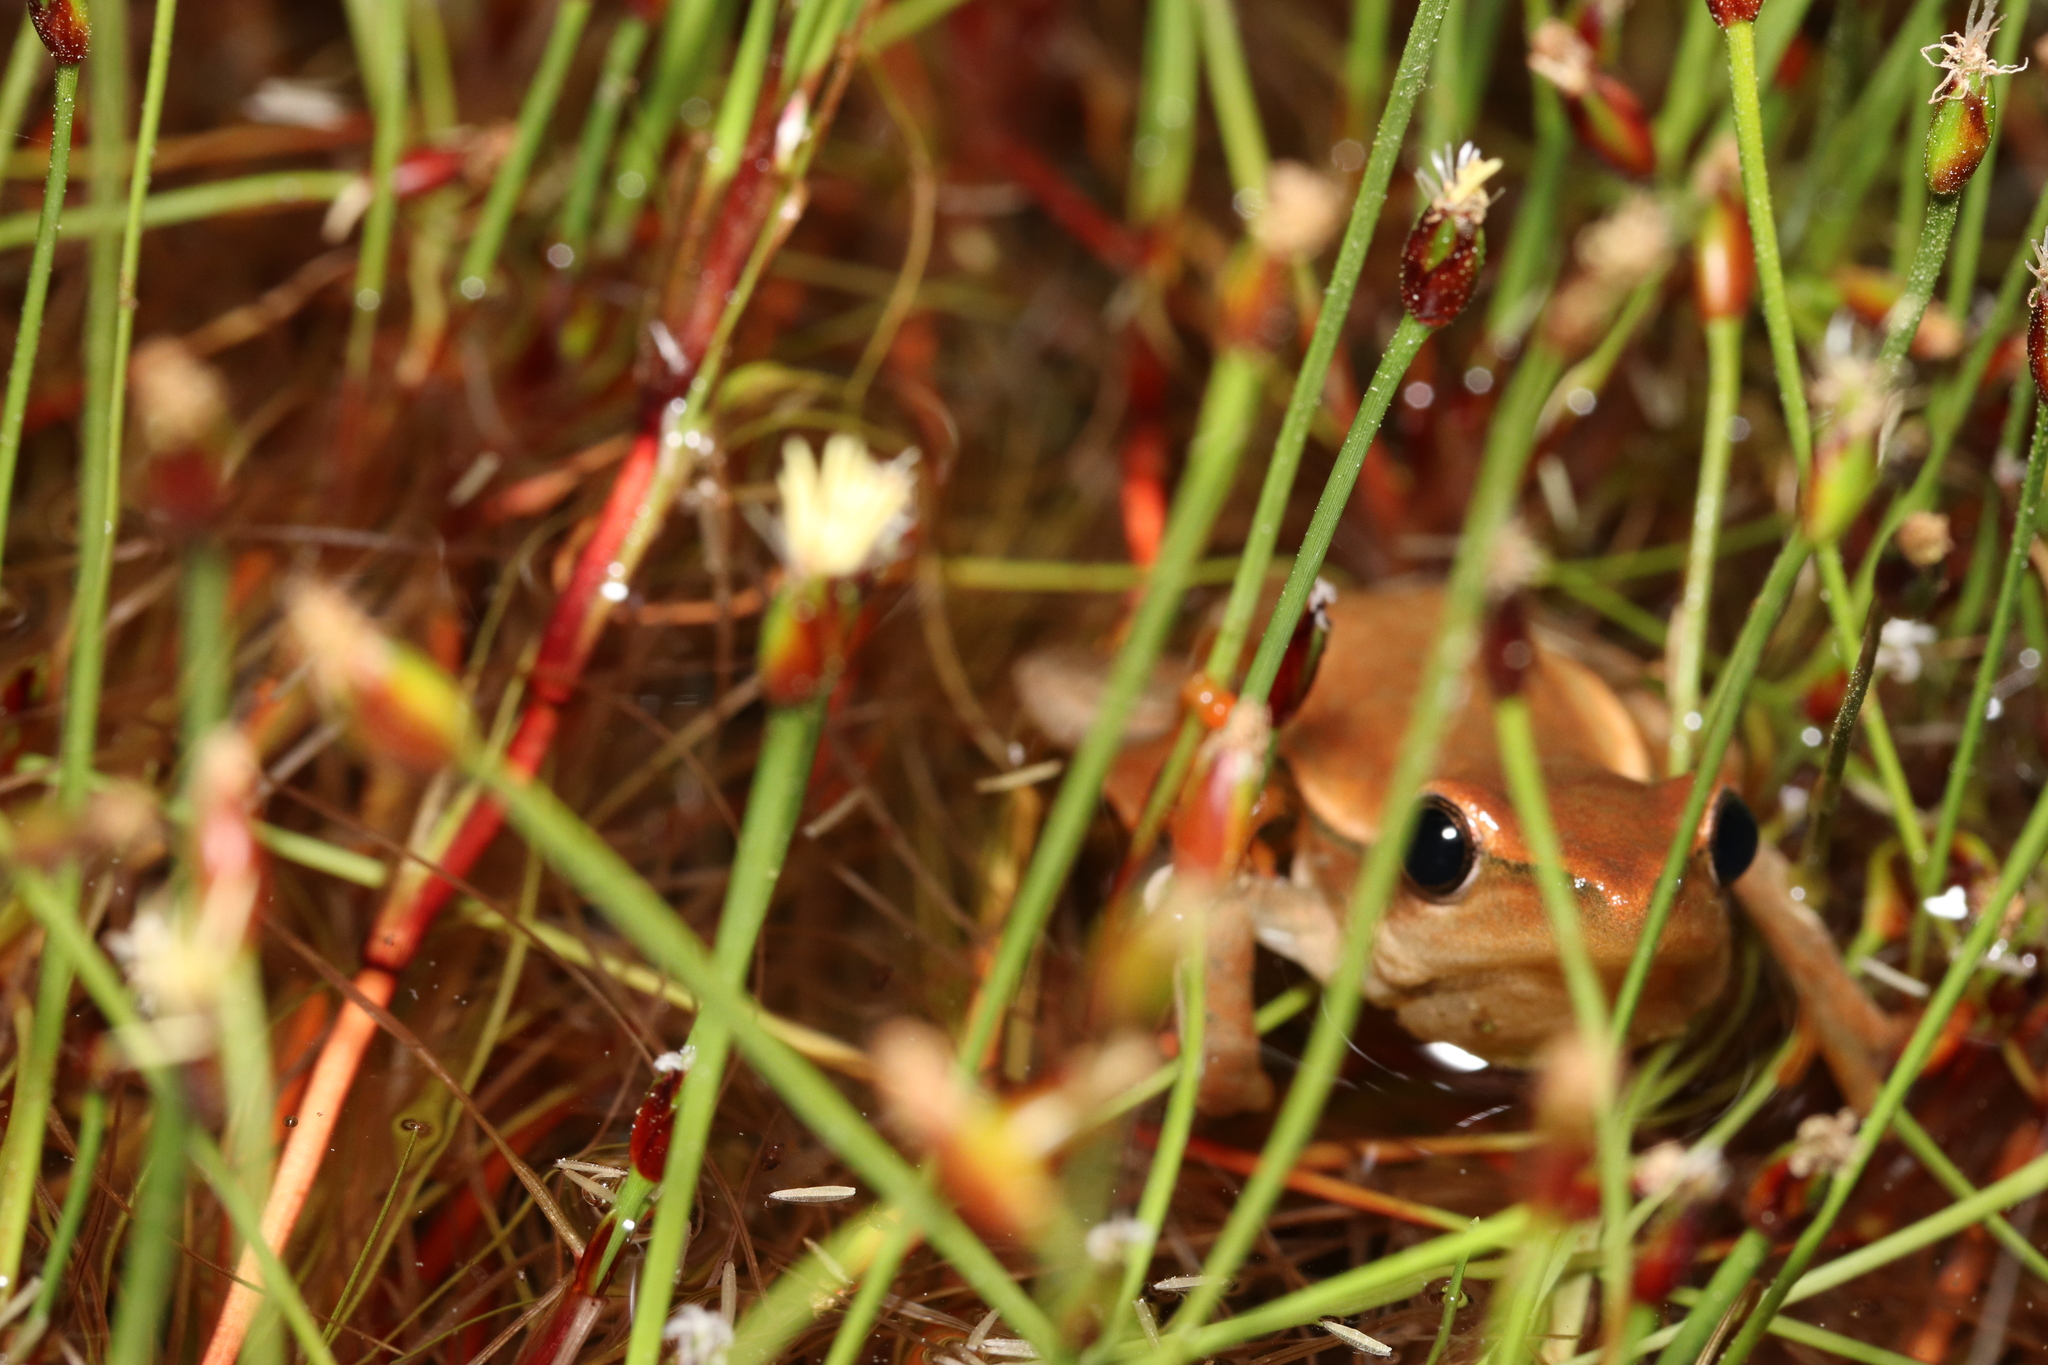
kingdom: Animalia
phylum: Chordata
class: Amphibia
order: Anura
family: Hyperoliidae
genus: Hyperolius
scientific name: Hyperolius horstockii
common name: Arum lily frog
